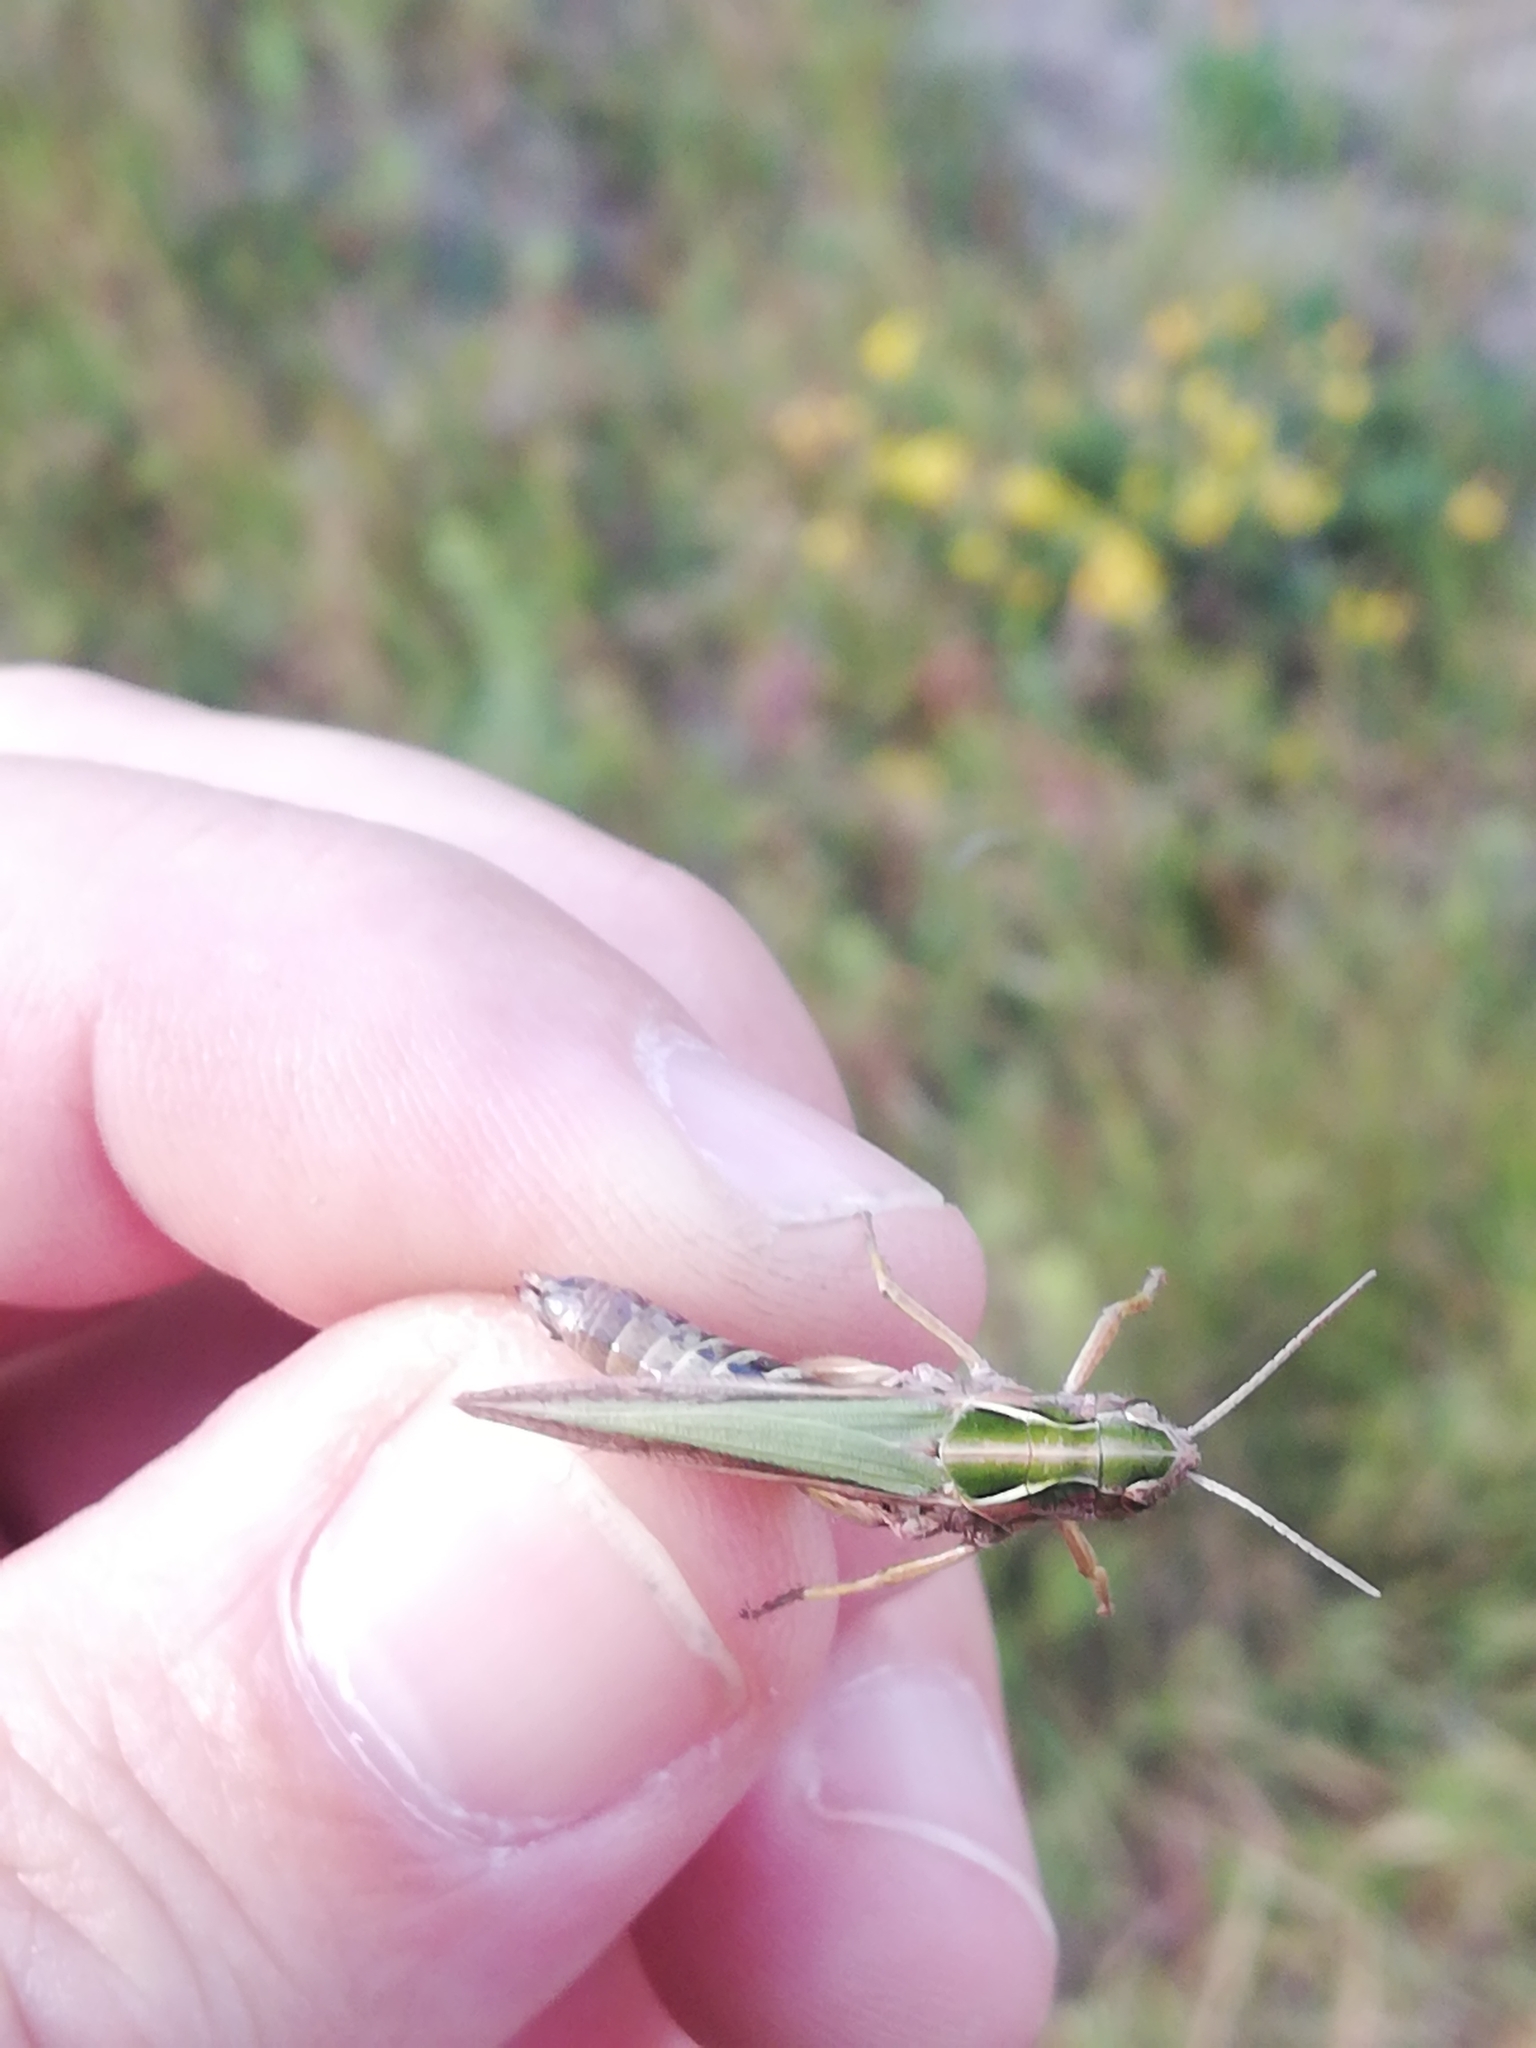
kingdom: Animalia
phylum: Arthropoda
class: Insecta
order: Orthoptera
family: Acrididae
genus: Omocestus
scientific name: Omocestus viridulus
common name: Common green grasshopper
